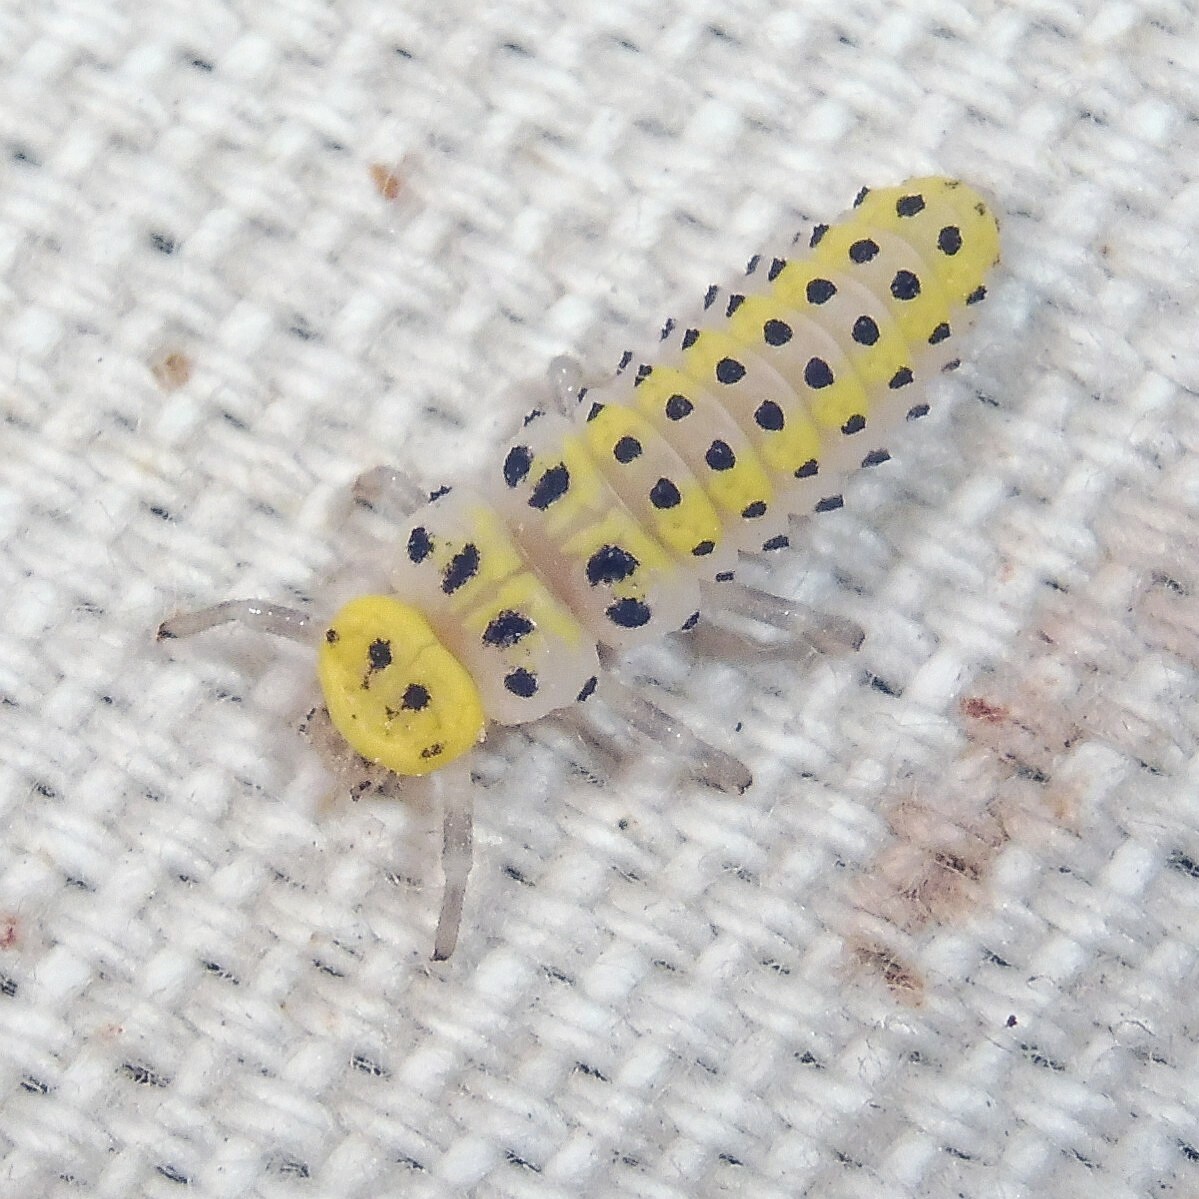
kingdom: Animalia
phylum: Arthropoda
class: Insecta
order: Coleoptera
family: Coccinellidae
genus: Halyzia
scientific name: Halyzia sedecimguttata
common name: Orange ladybird
